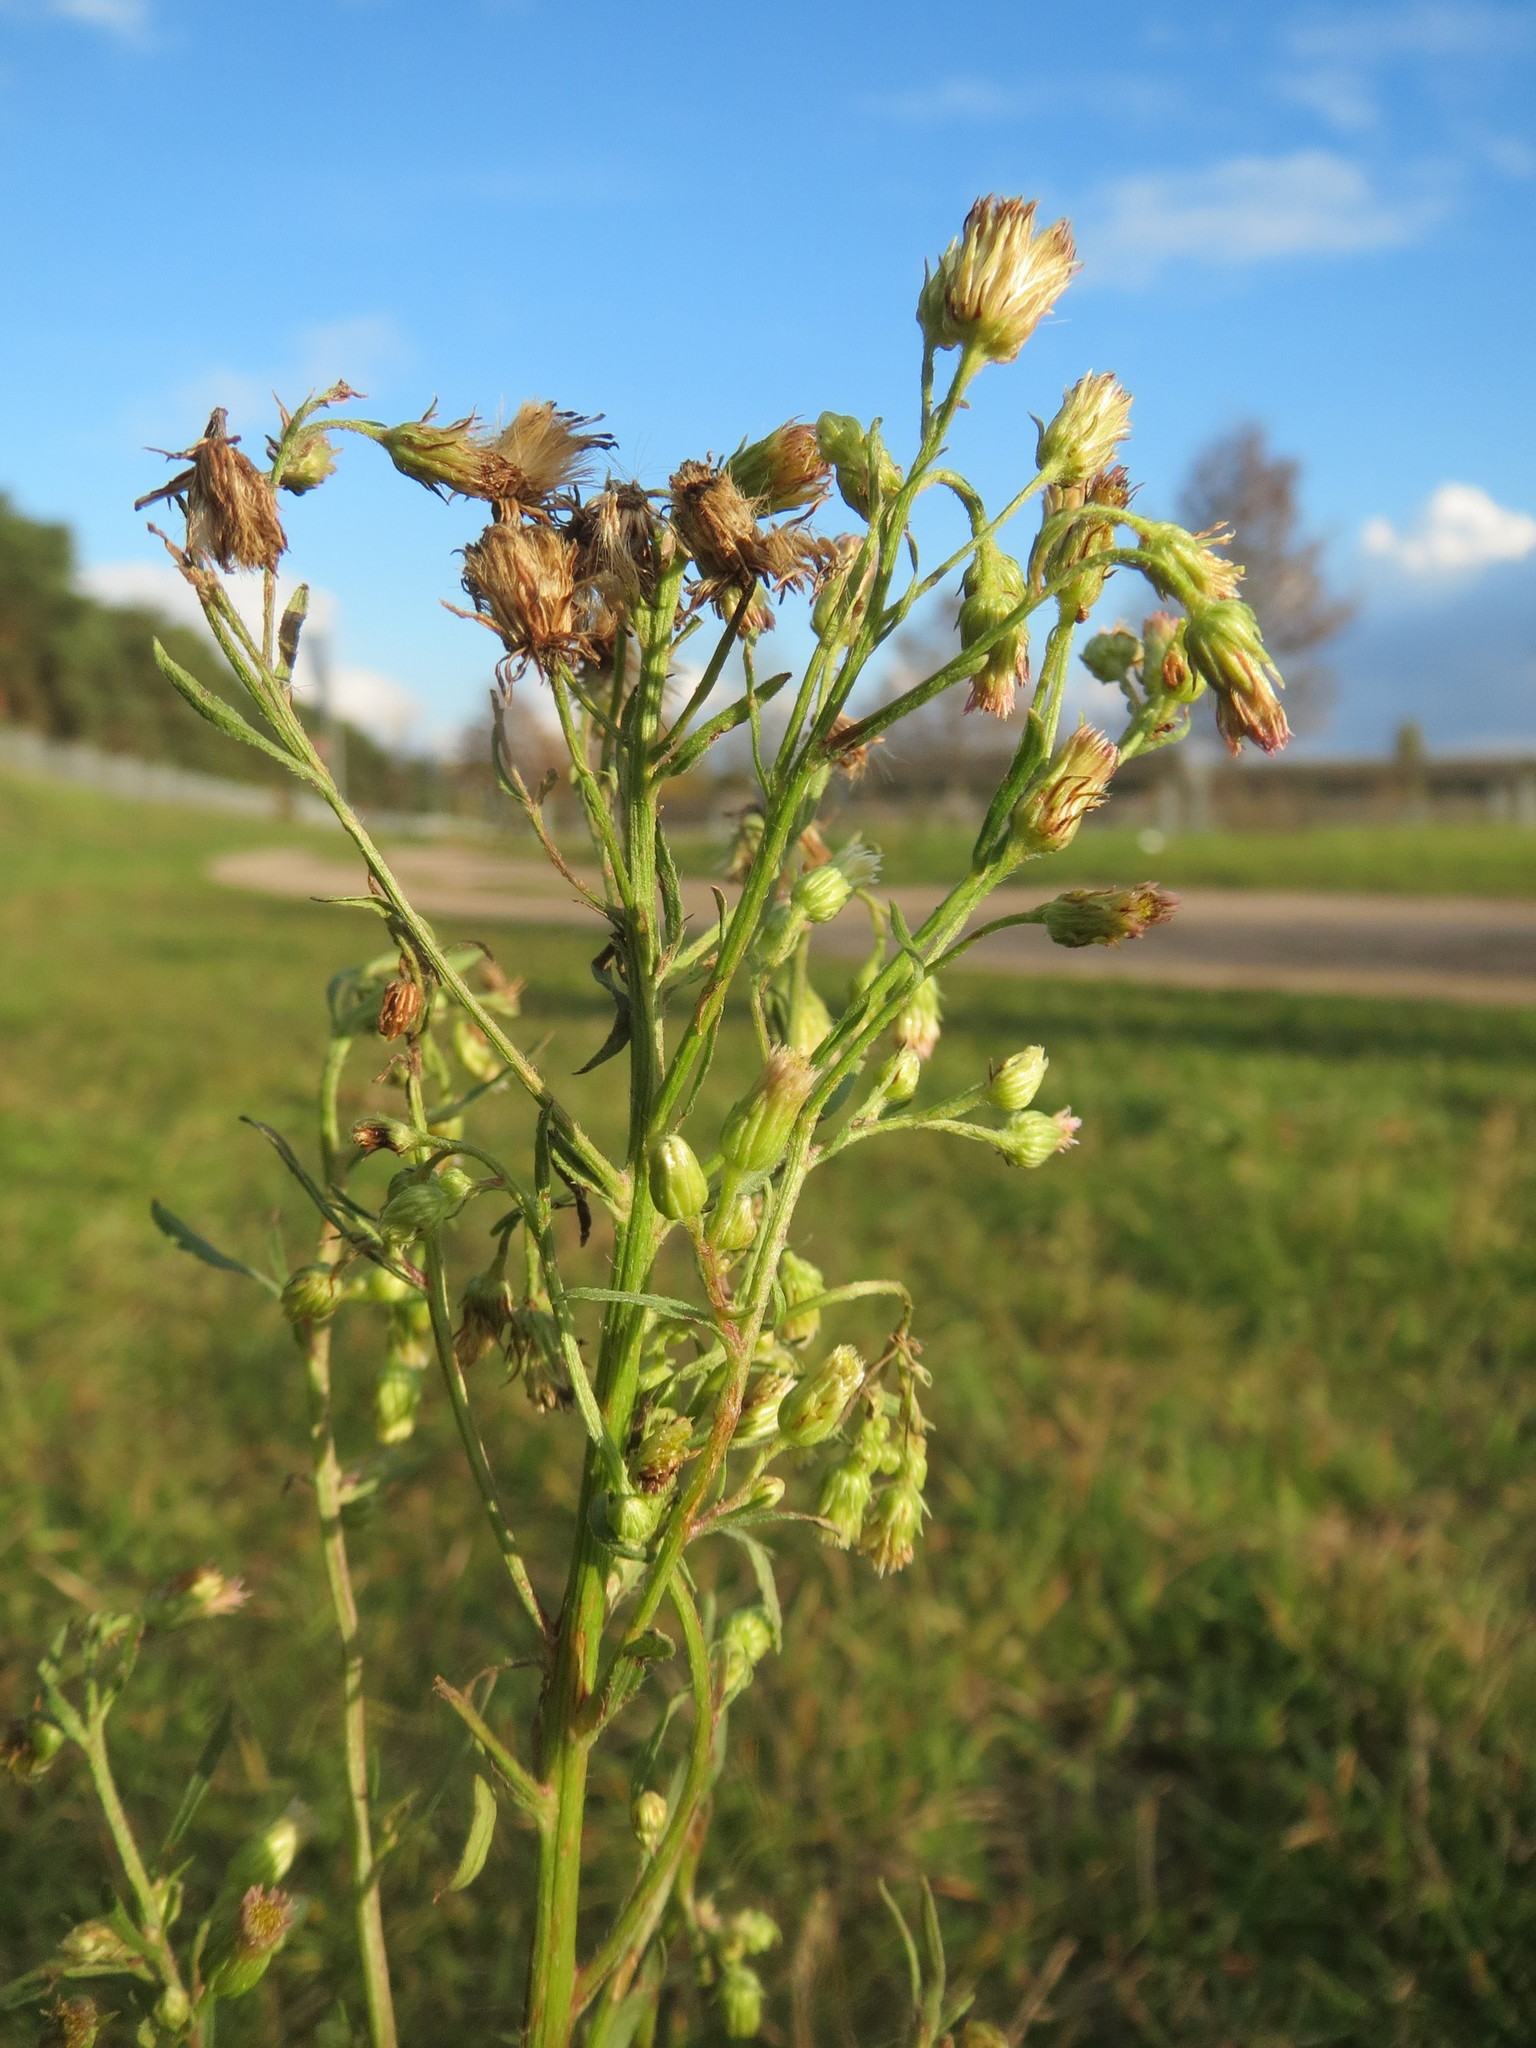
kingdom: Plantae
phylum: Tracheophyta
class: Magnoliopsida
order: Asterales
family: Asteraceae
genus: Erigeron
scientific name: Erigeron canadensis
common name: Canadian fleabane
